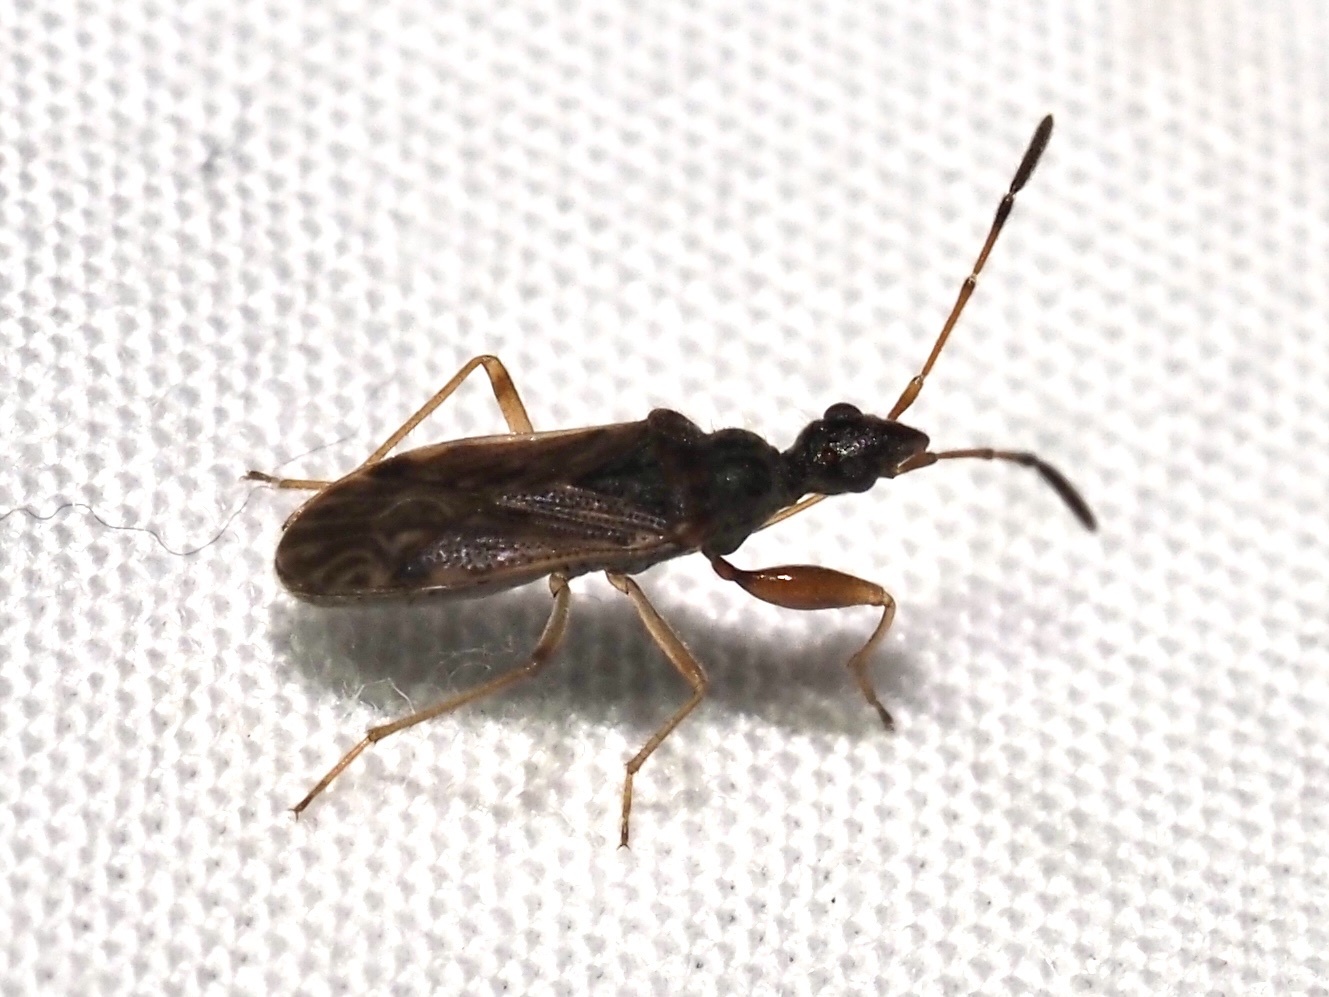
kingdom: Animalia
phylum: Arthropoda
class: Insecta
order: Hemiptera
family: Rhyparochromidae
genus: Heraeus
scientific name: Heraeus plebejus
